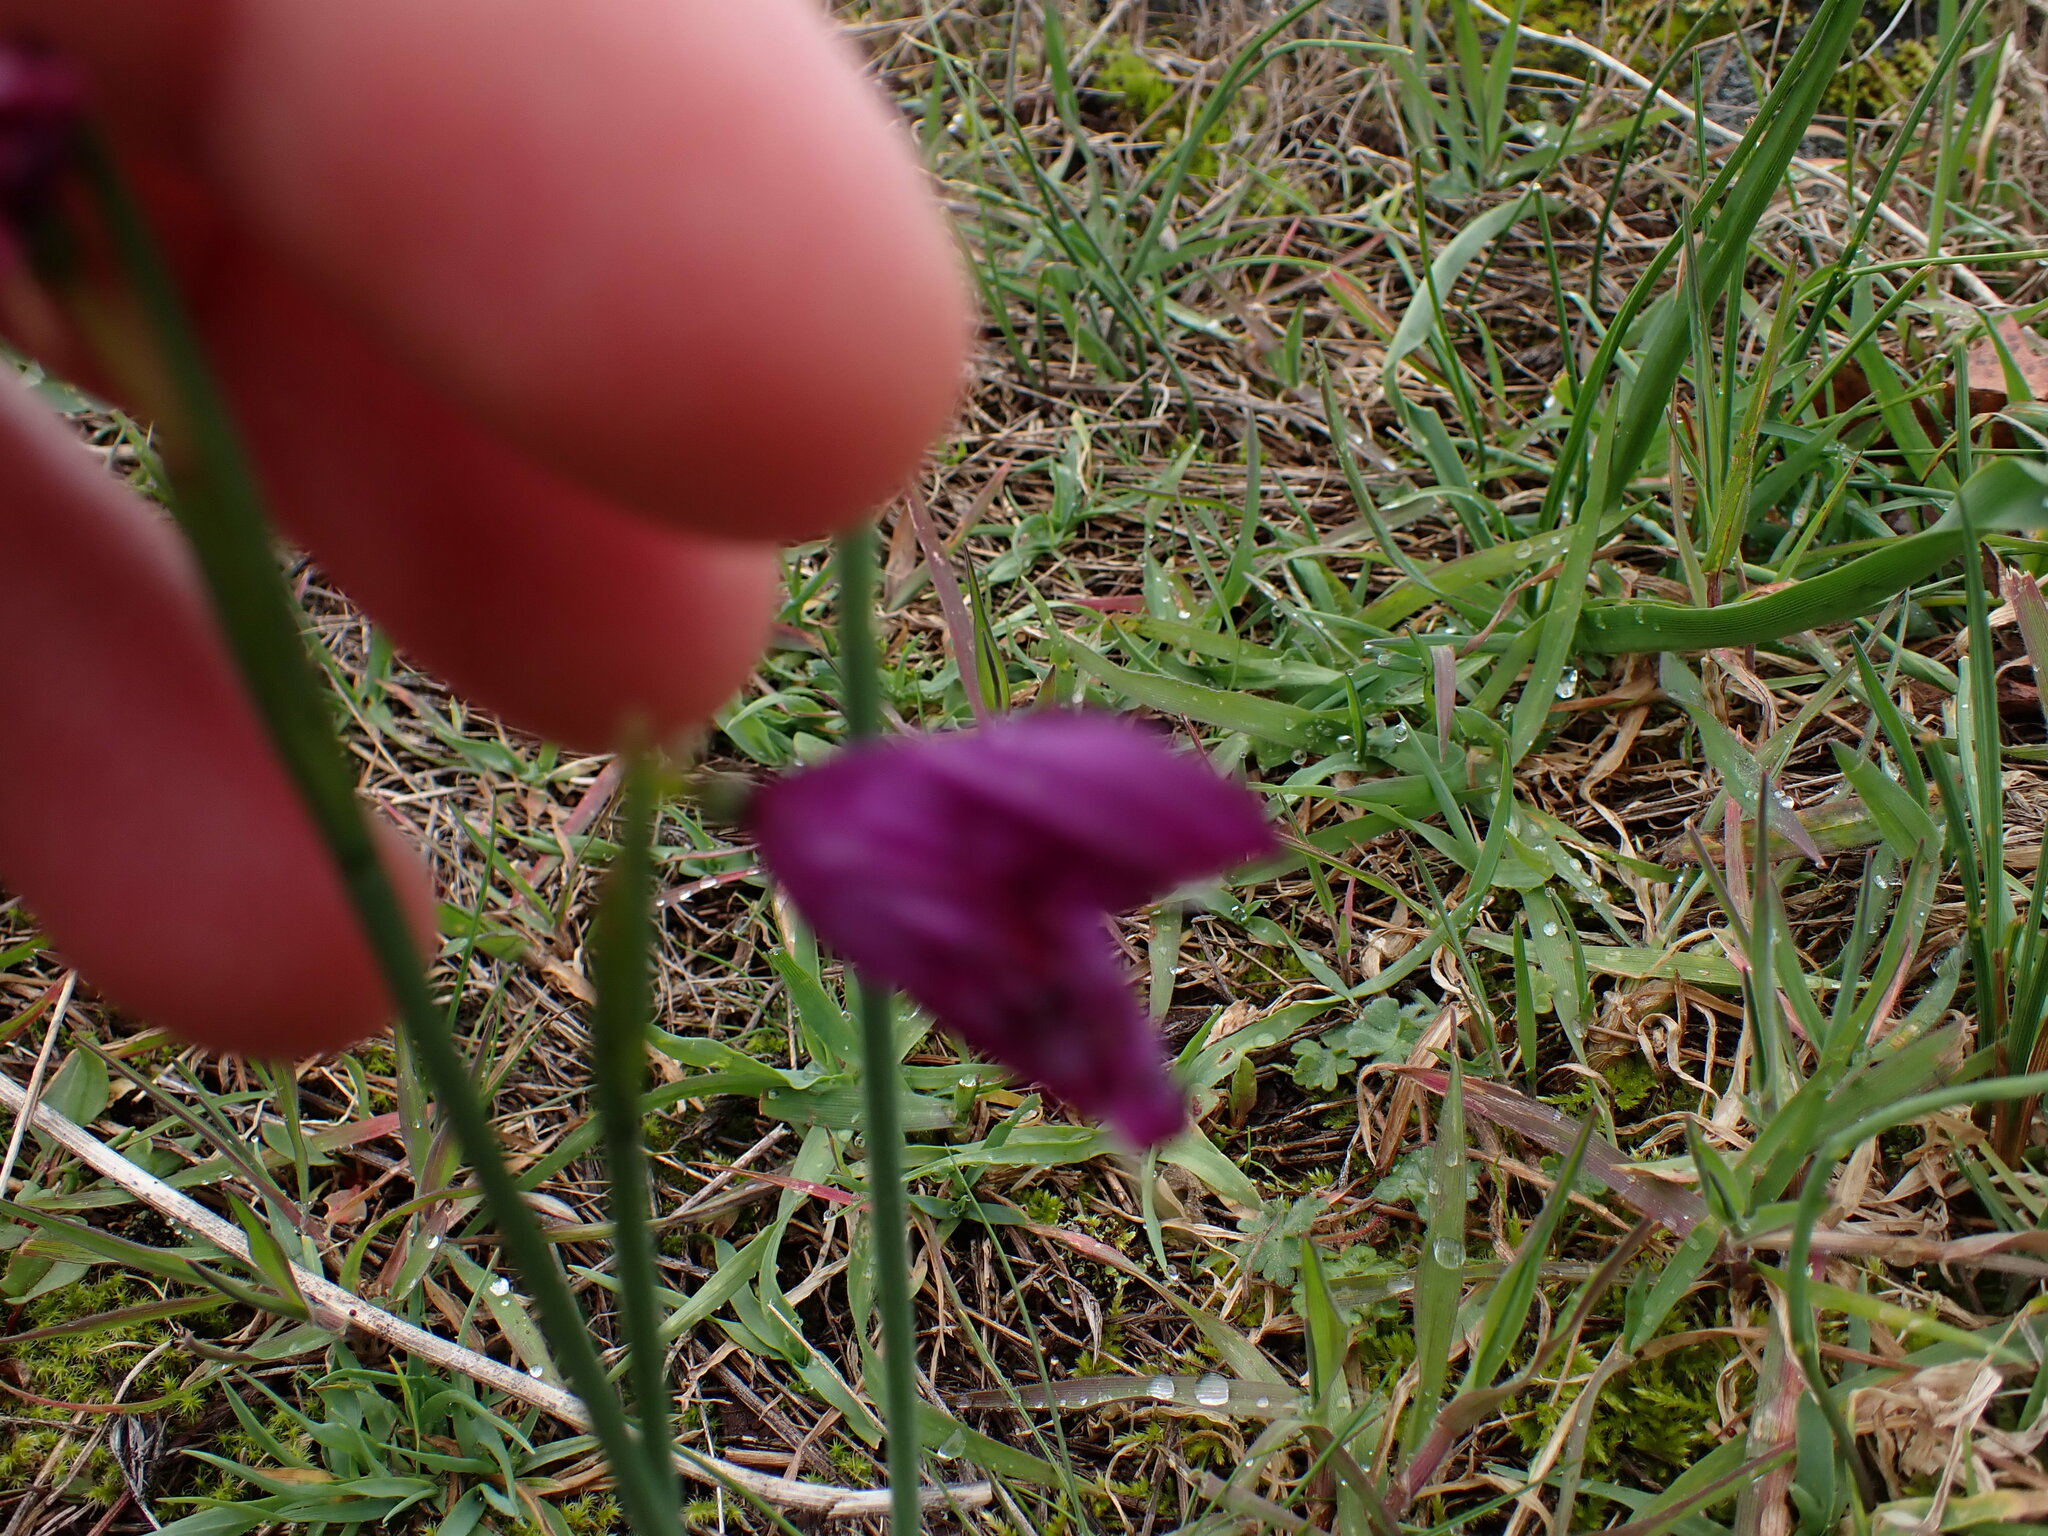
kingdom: Plantae
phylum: Tracheophyta
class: Liliopsida
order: Asparagales
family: Iridaceae
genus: Olsynium
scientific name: Olsynium douglasii
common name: Douglas' grasswidow
